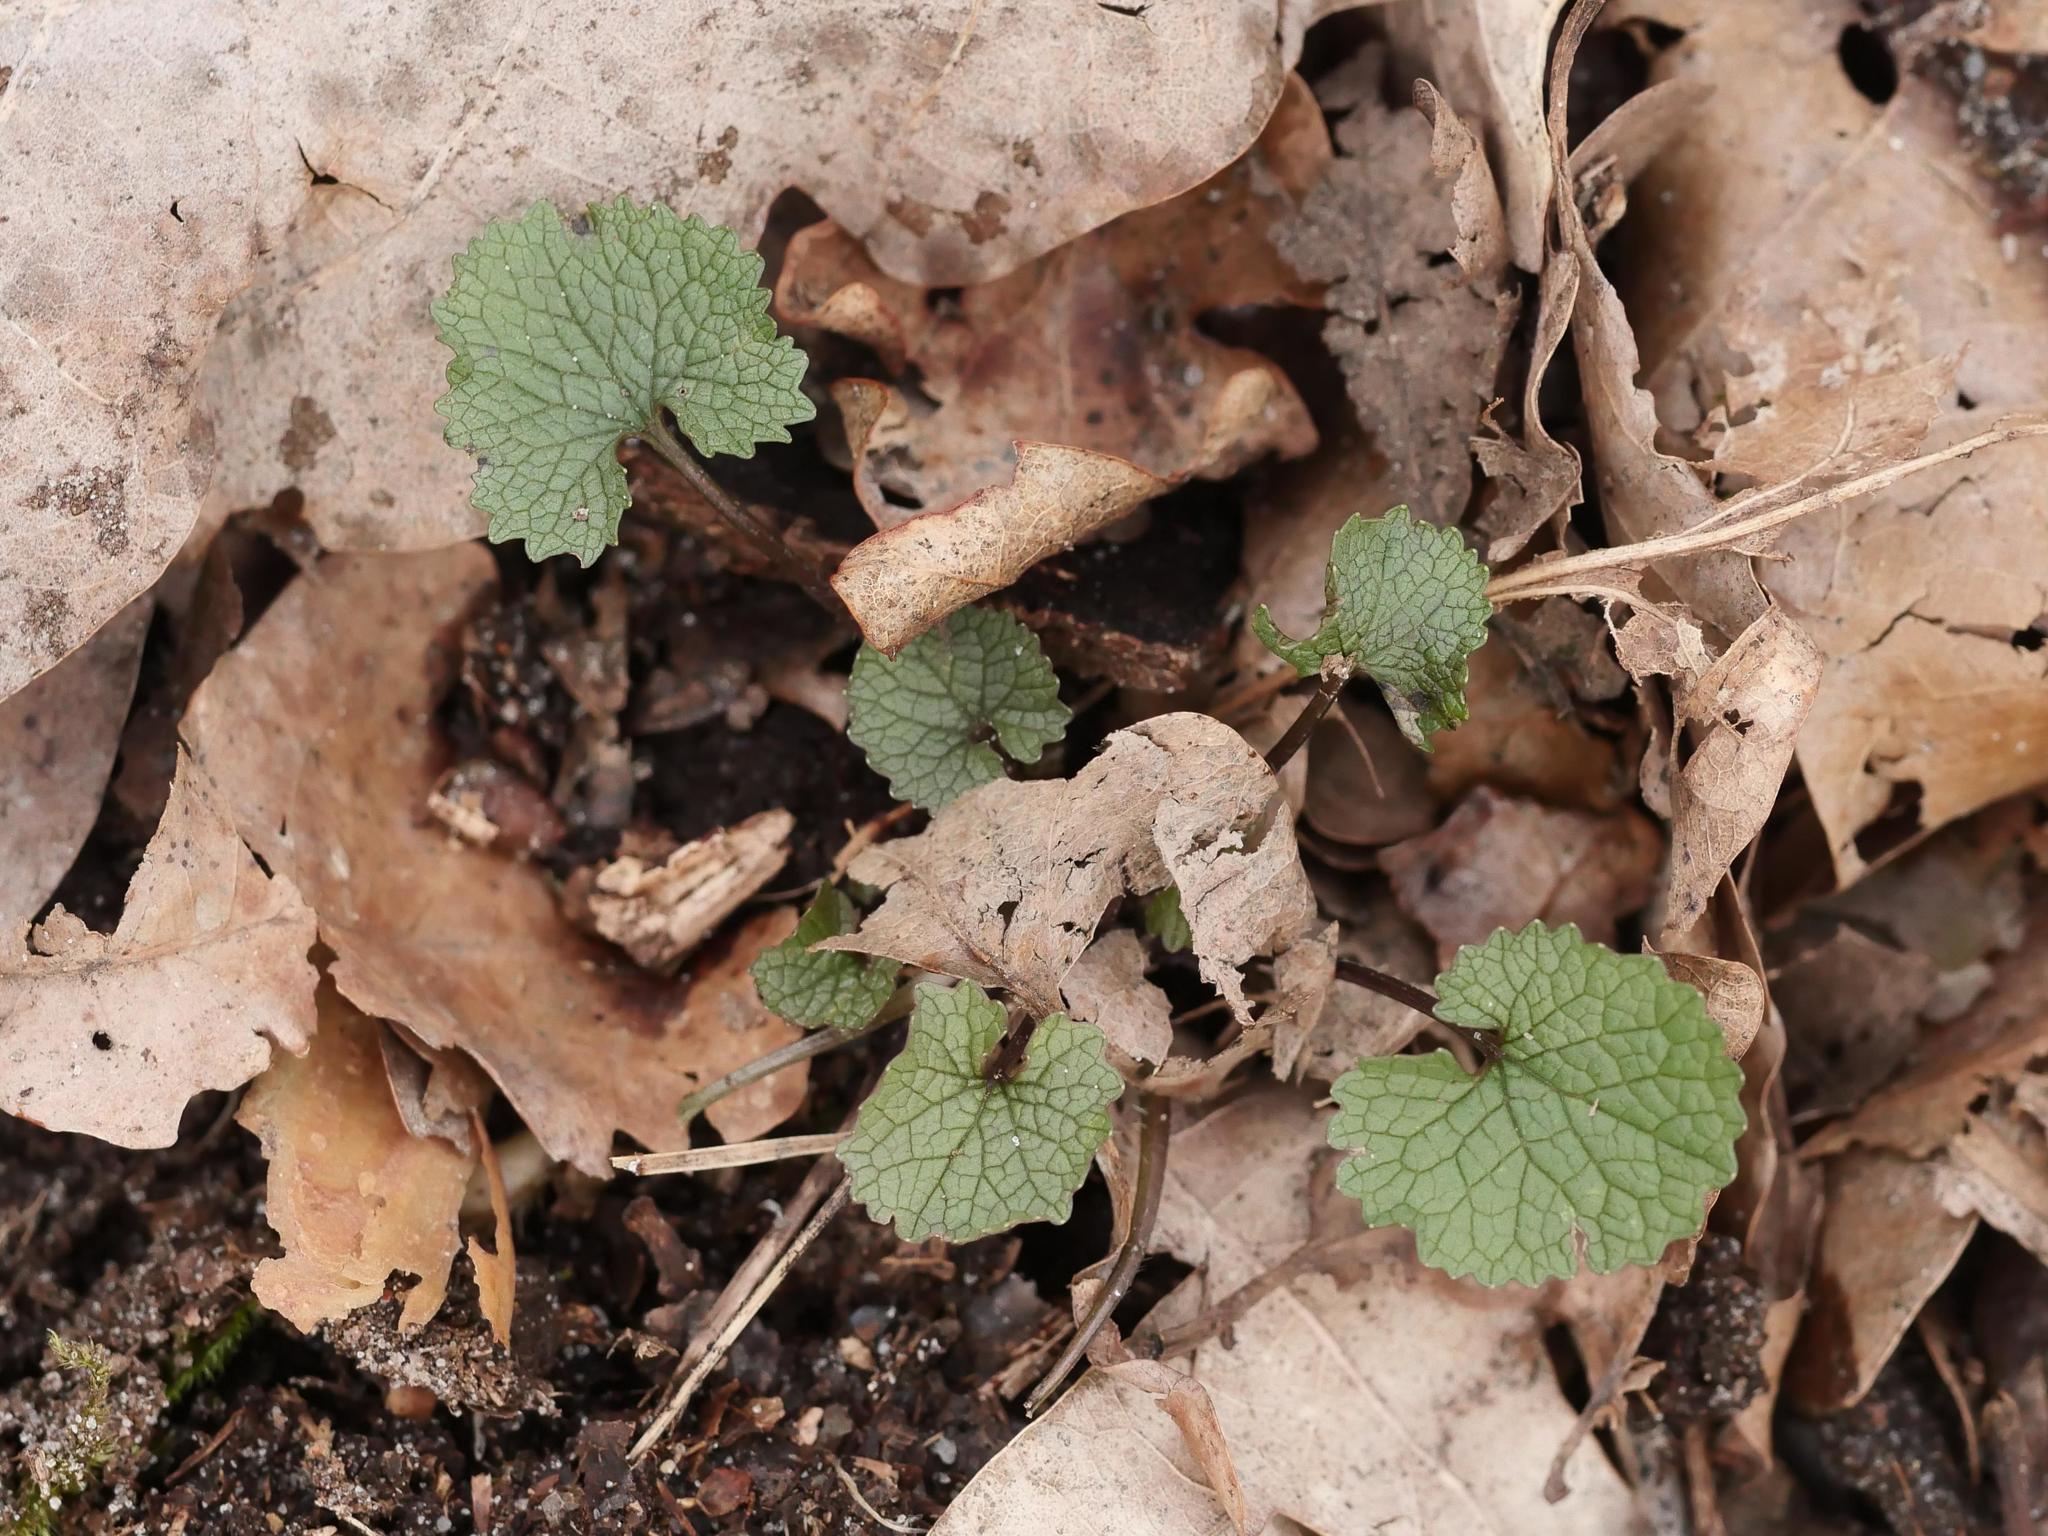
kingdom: Plantae
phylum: Tracheophyta
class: Magnoliopsida
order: Brassicales
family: Brassicaceae
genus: Alliaria
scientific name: Alliaria petiolata
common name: Garlic mustard
